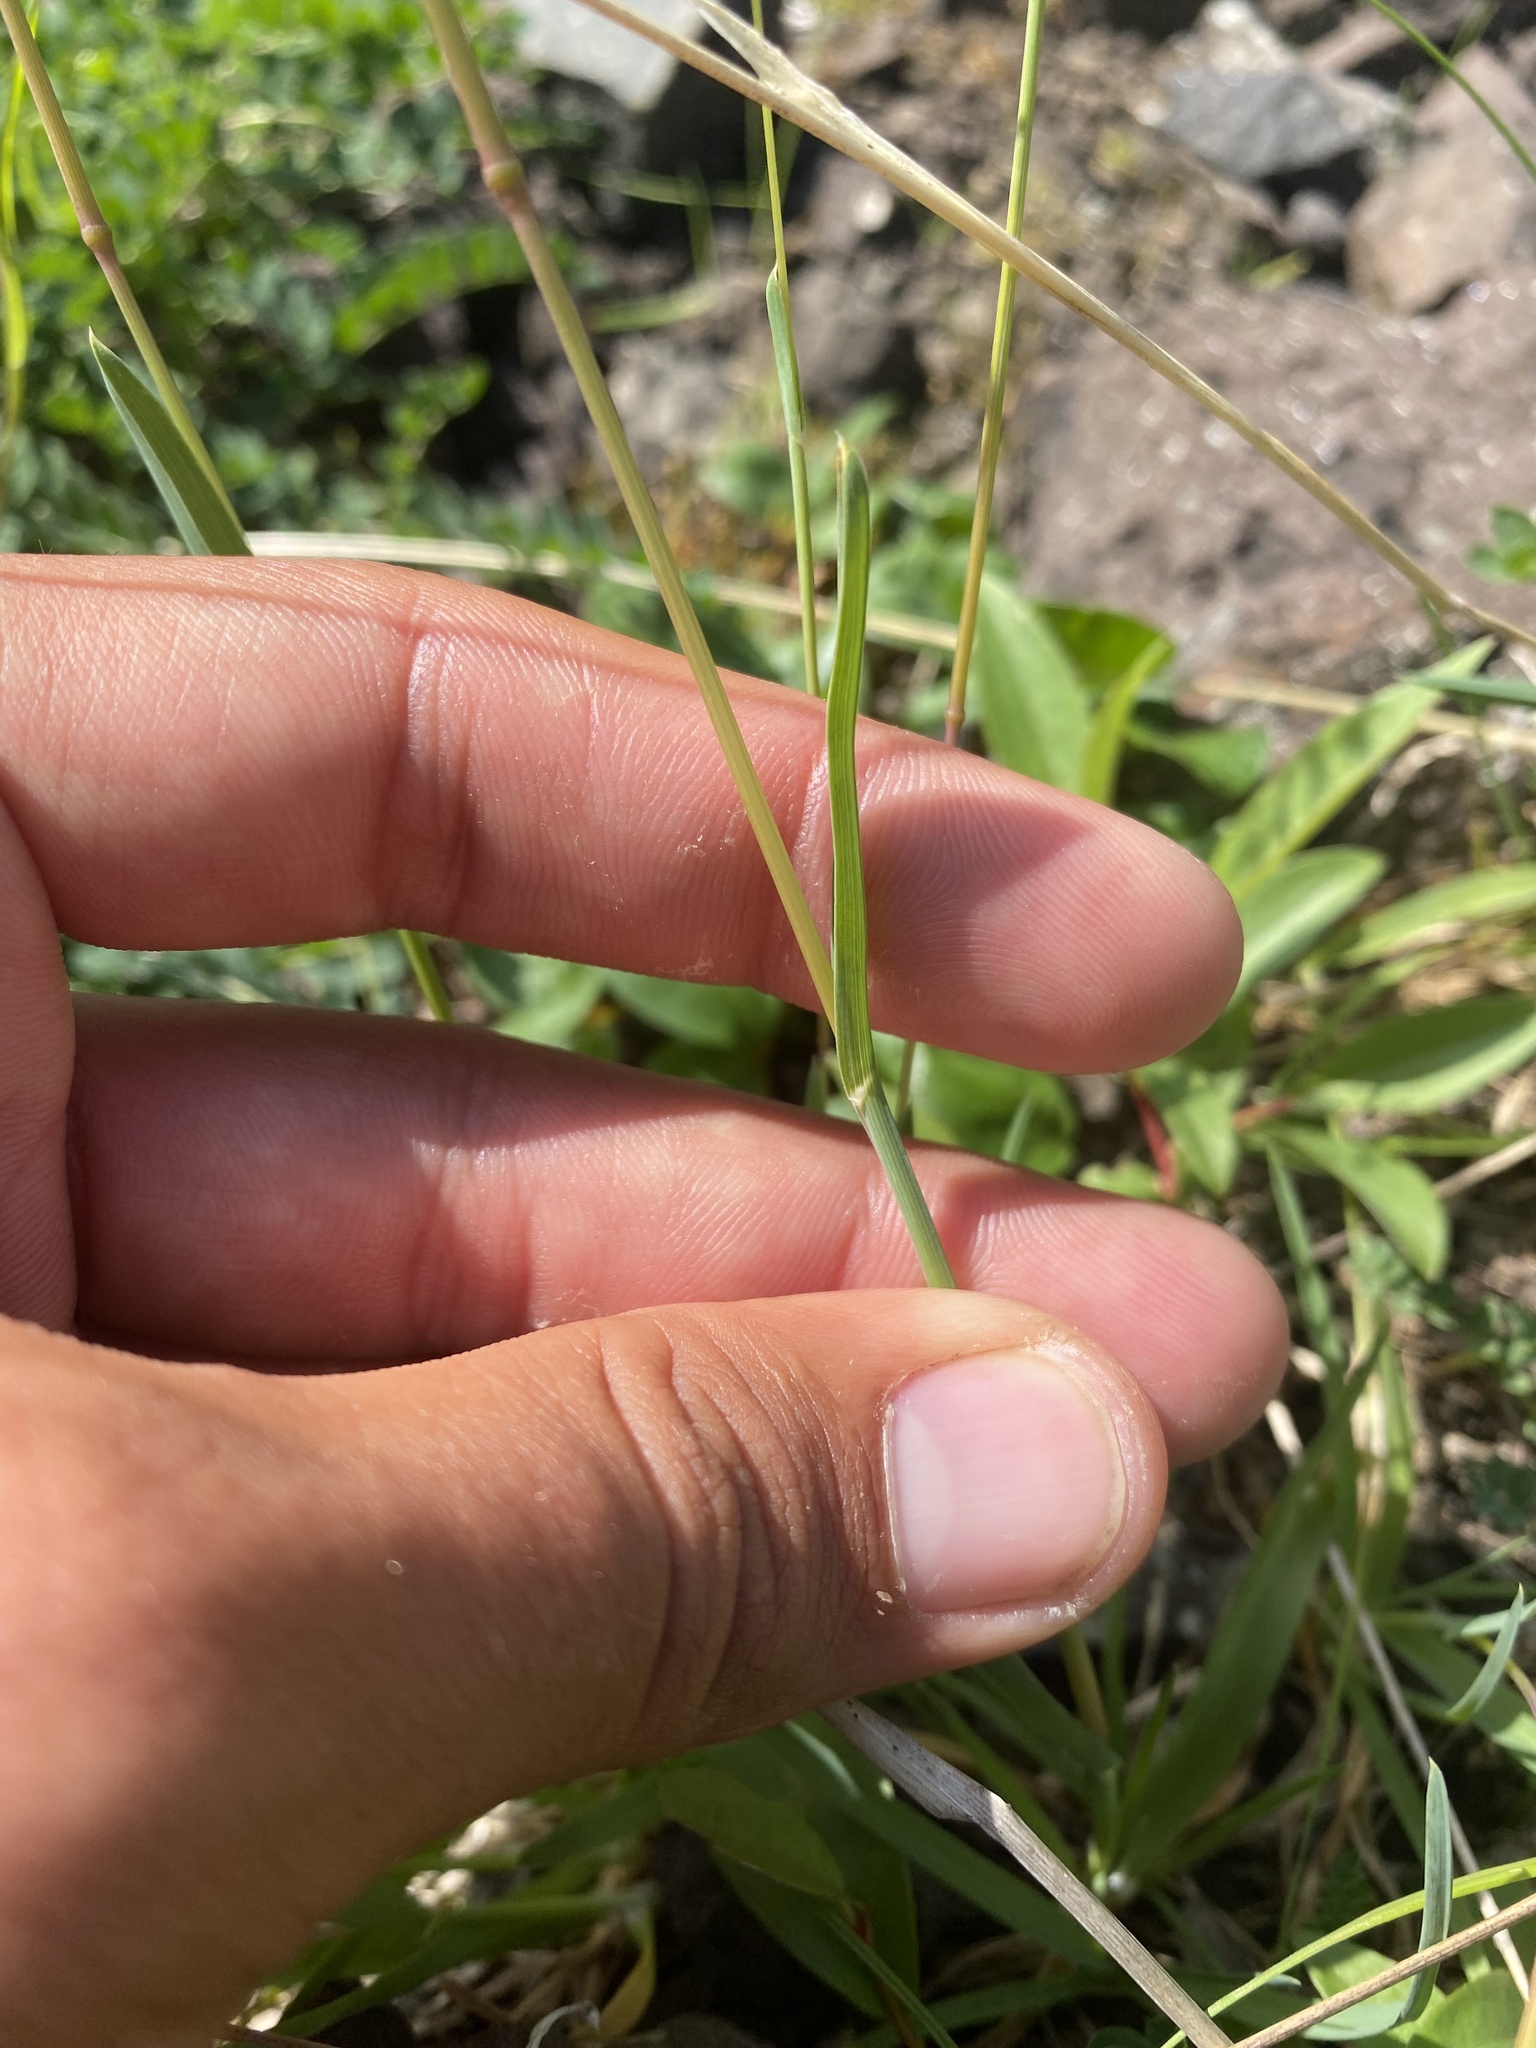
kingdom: Plantae
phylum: Tracheophyta
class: Liliopsida
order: Poales
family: Poaceae
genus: Poa
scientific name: Poa alpina
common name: Alpine bluegrass
